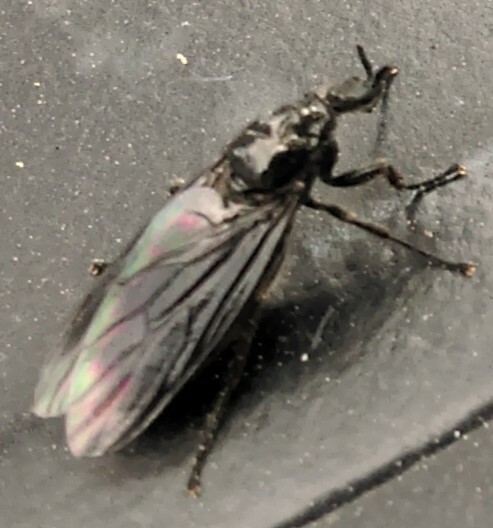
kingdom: Animalia
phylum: Arthropoda
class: Insecta
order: Diptera
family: Bibionidae
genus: Dilophus
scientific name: Dilophus febrilis
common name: Fever fly
